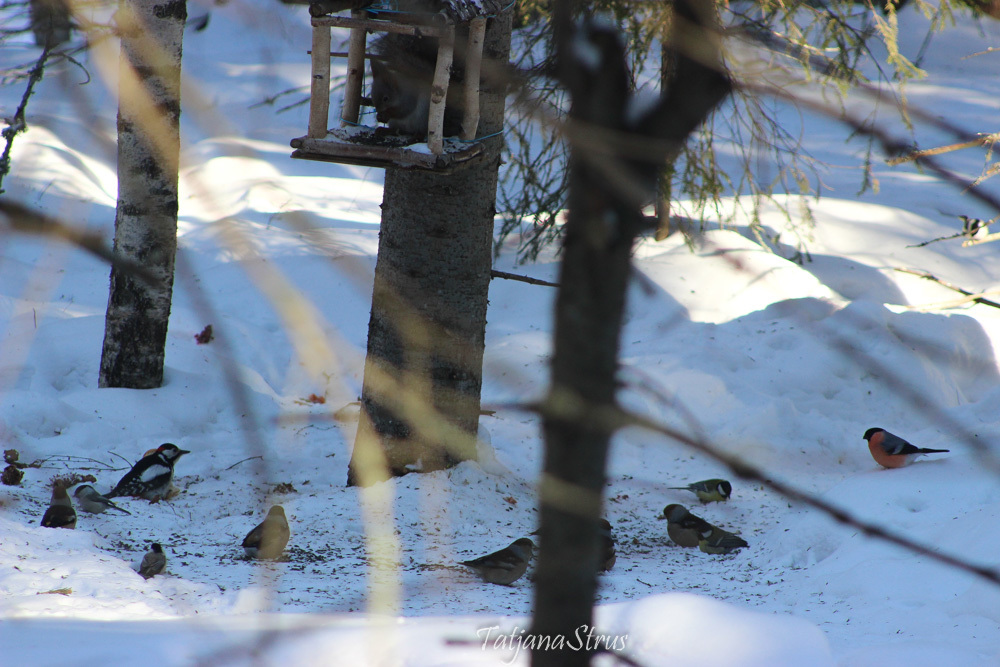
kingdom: Animalia
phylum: Chordata
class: Aves
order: Passeriformes
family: Fringillidae
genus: Pyrrhula
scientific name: Pyrrhula pyrrhula
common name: Eurasian bullfinch
